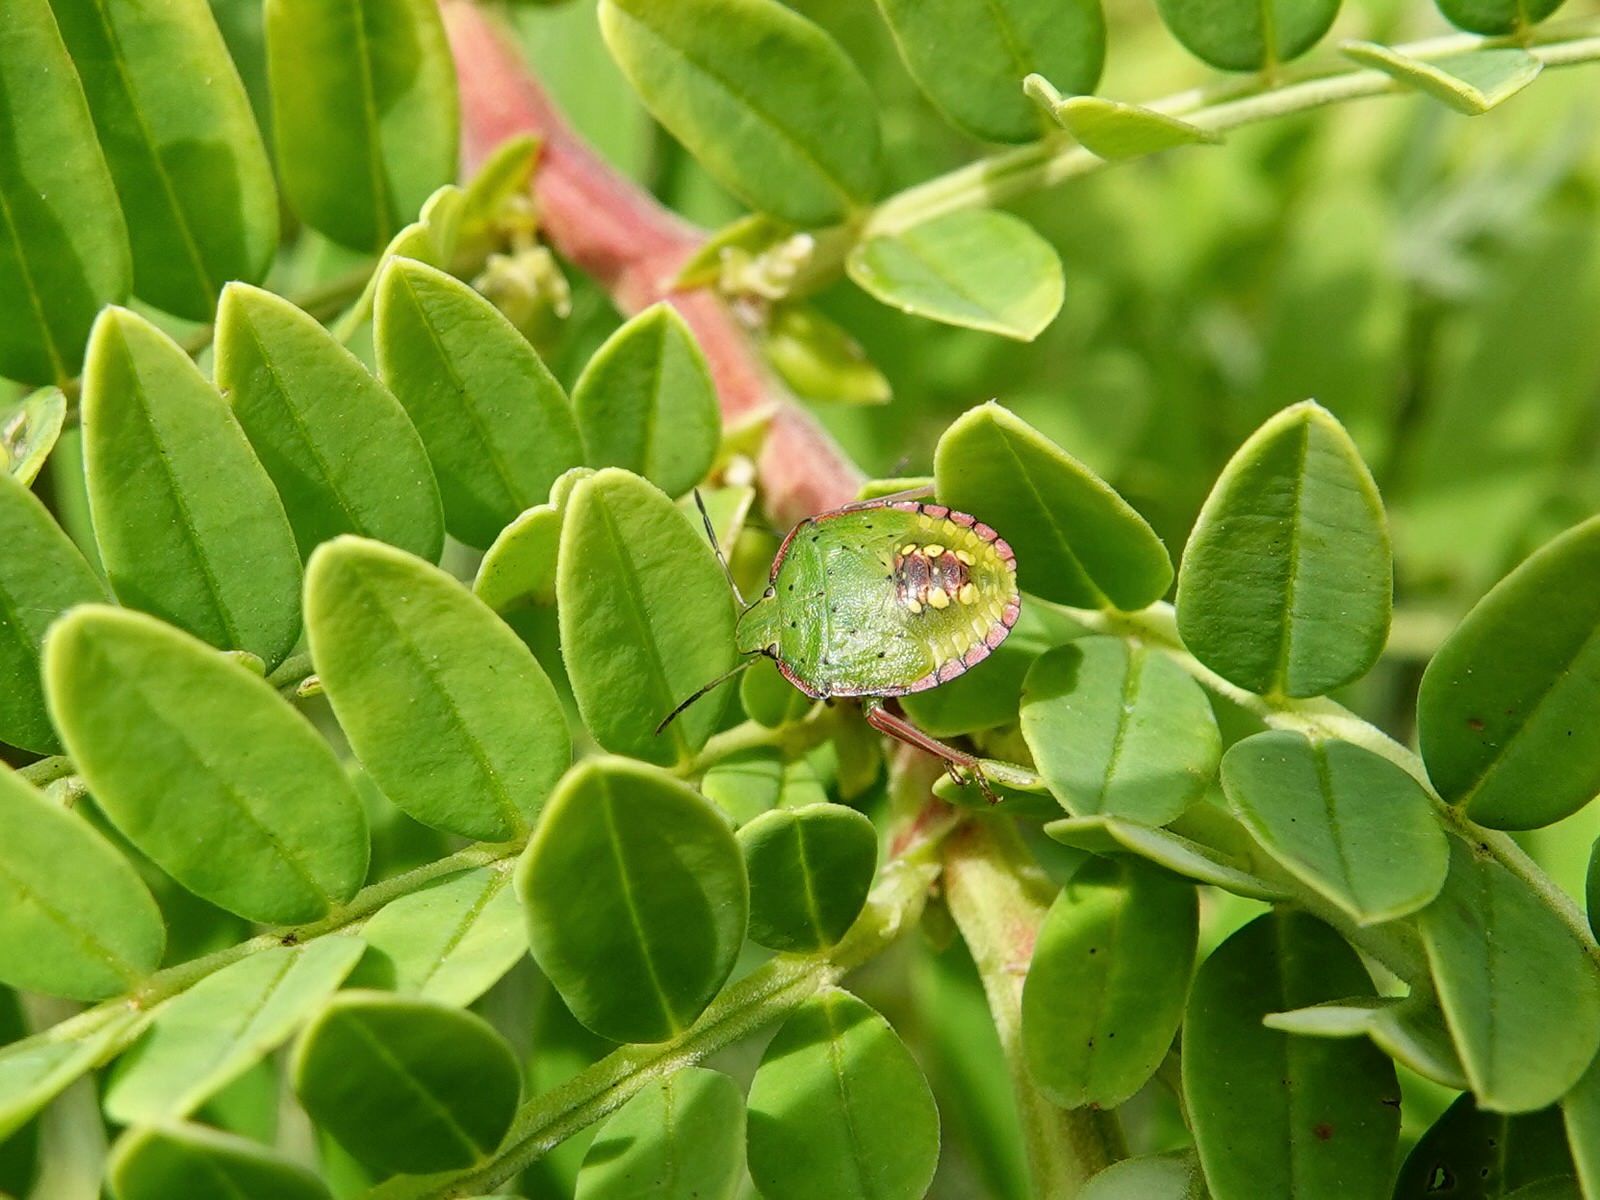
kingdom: Animalia
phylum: Arthropoda
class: Insecta
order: Hemiptera
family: Pentatomidae
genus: Nezara
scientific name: Nezara viridula
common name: Southern green stink bug
